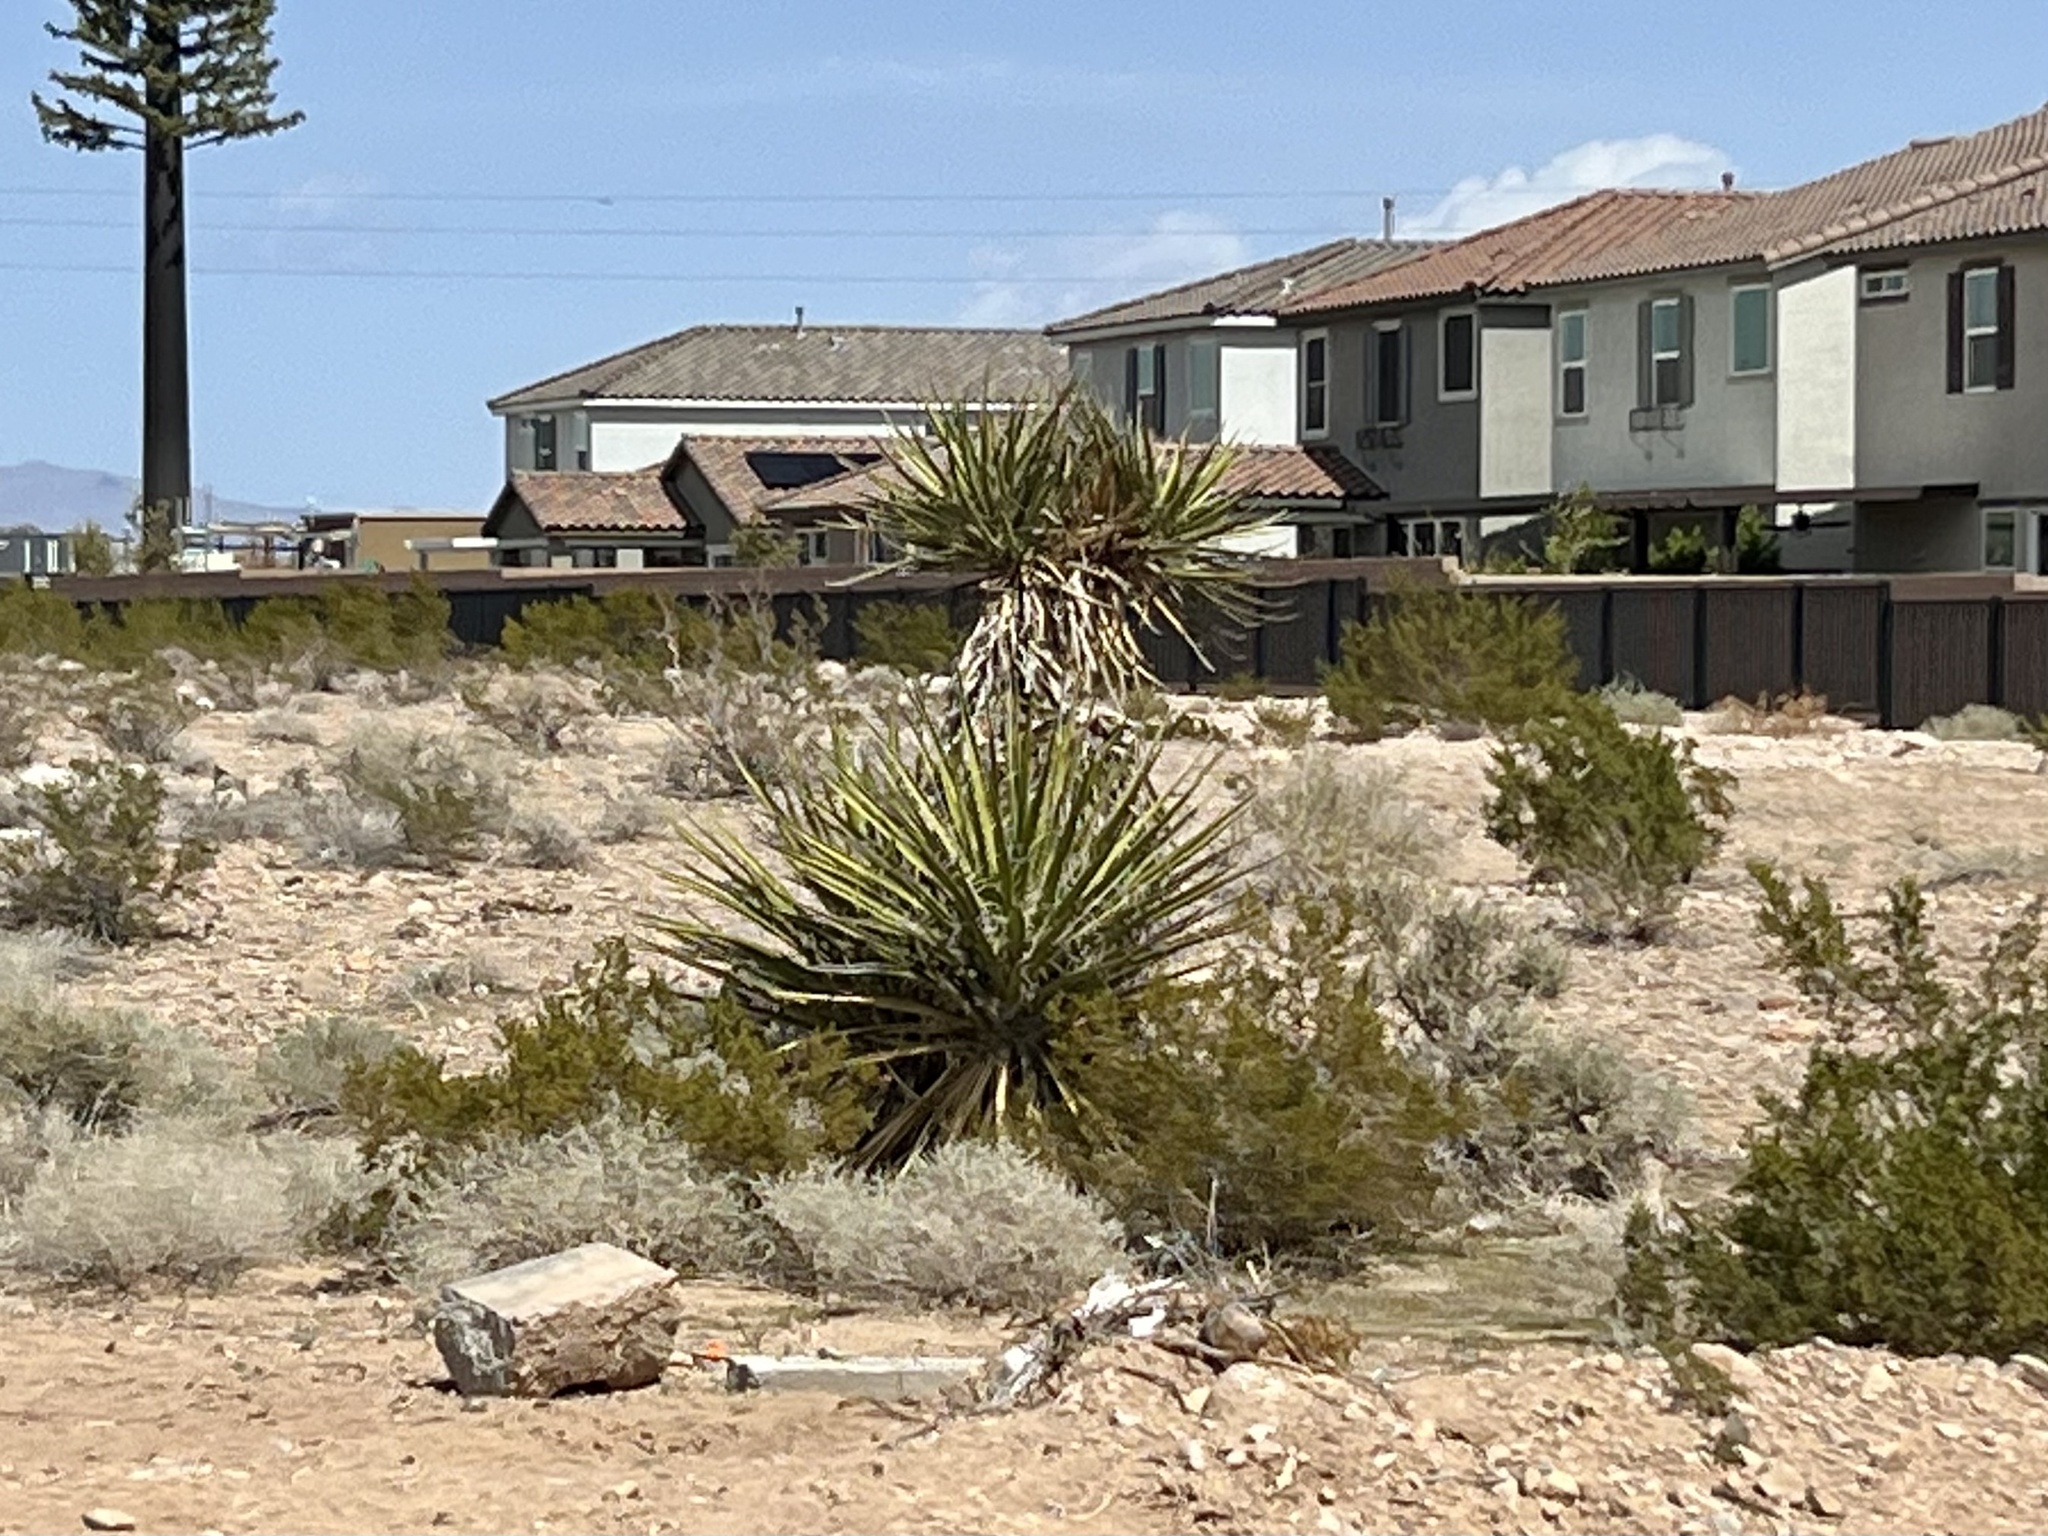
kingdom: Plantae
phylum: Tracheophyta
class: Liliopsida
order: Asparagales
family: Asparagaceae
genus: Yucca
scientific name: Yucca schidigera
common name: Mojave yucca
